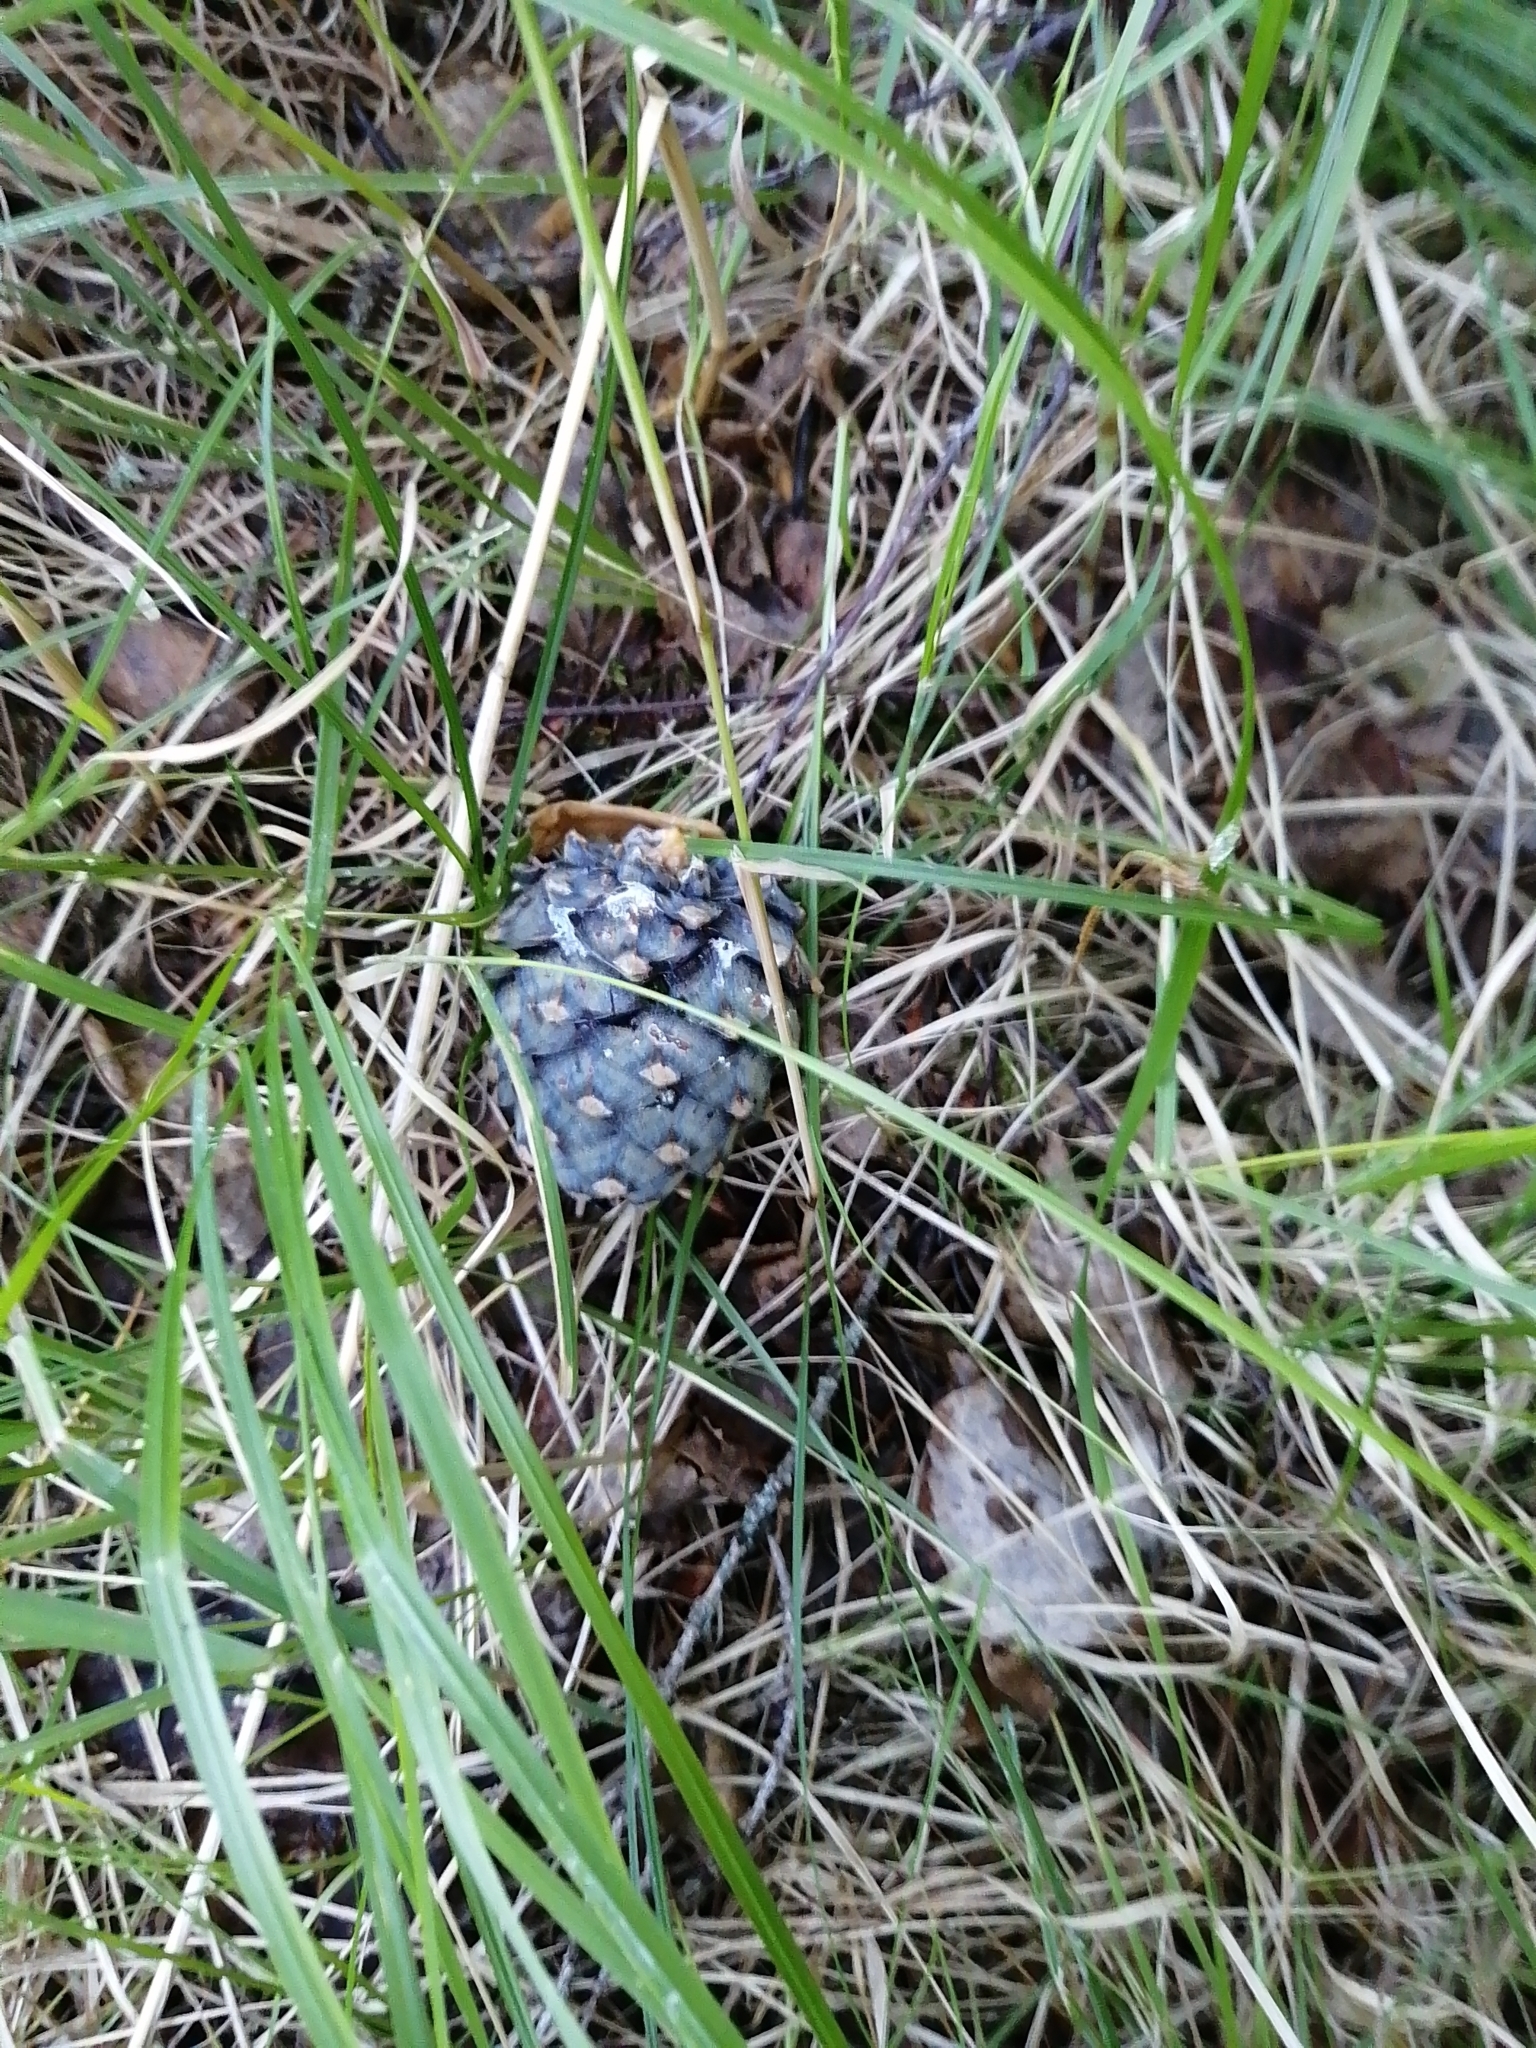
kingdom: Plantae
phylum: Tracheophyta
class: Pinopsida
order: Pinales
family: Pinaceae
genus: Pinus
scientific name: Pinus sibirica
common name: Siberian pine
